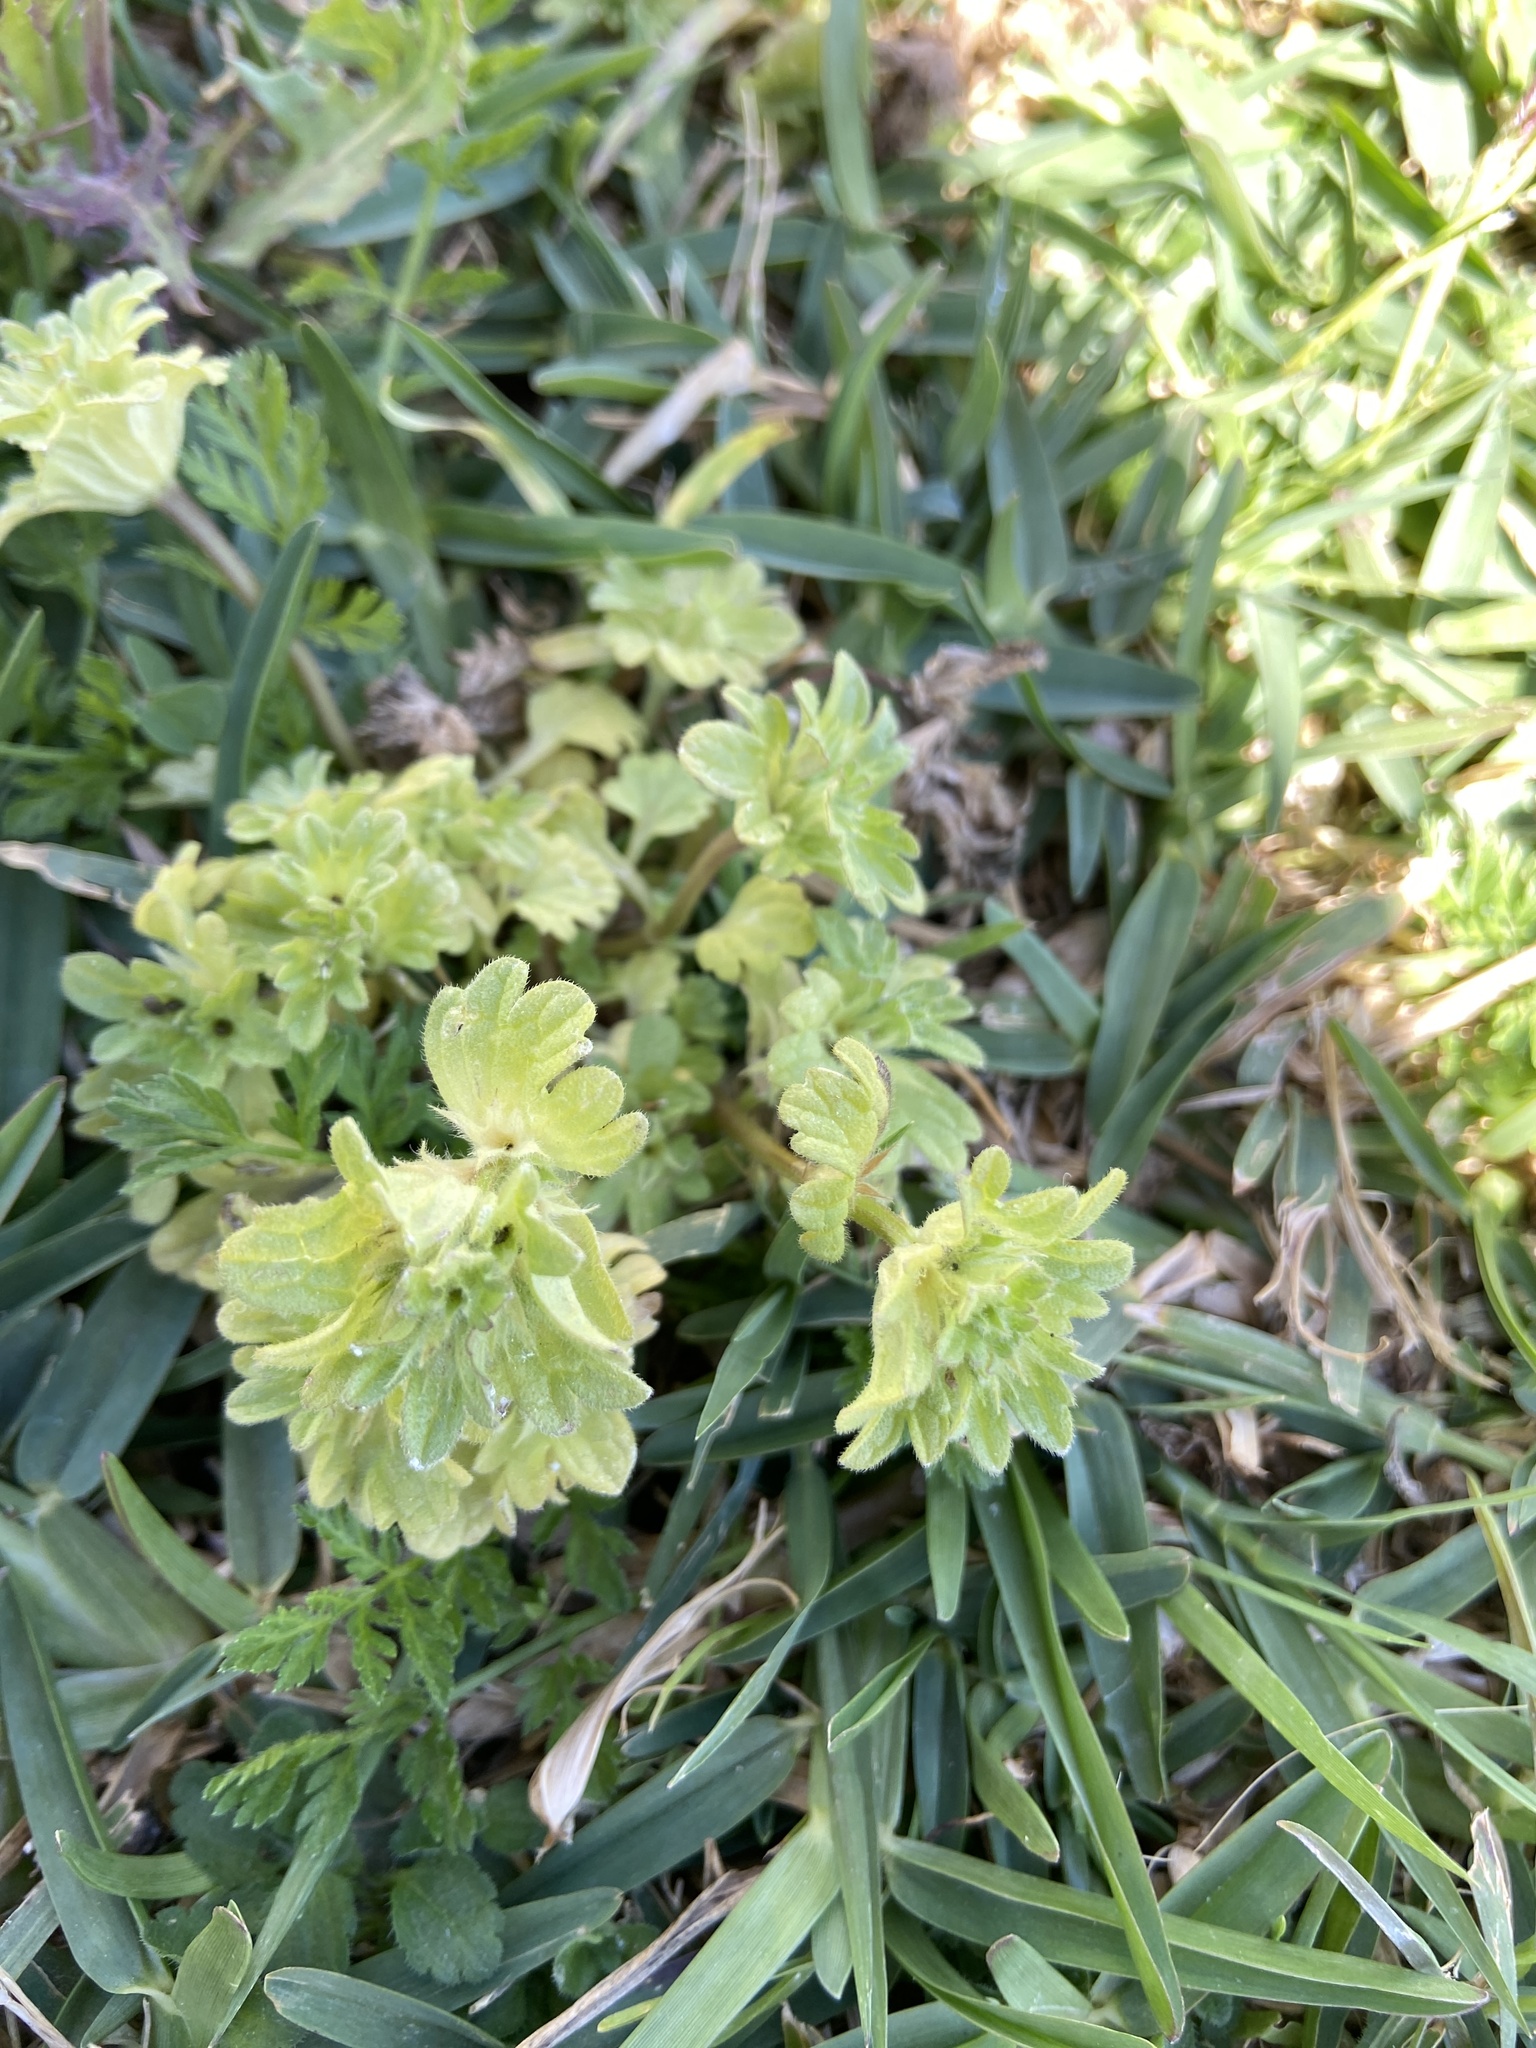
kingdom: Plantae
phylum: Tracheophyta
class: Magnoliopsida
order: Lamiales
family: Lamiaceae
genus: Lamium
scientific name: Lamium amplexicaule
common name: Henbit dead-nettle
